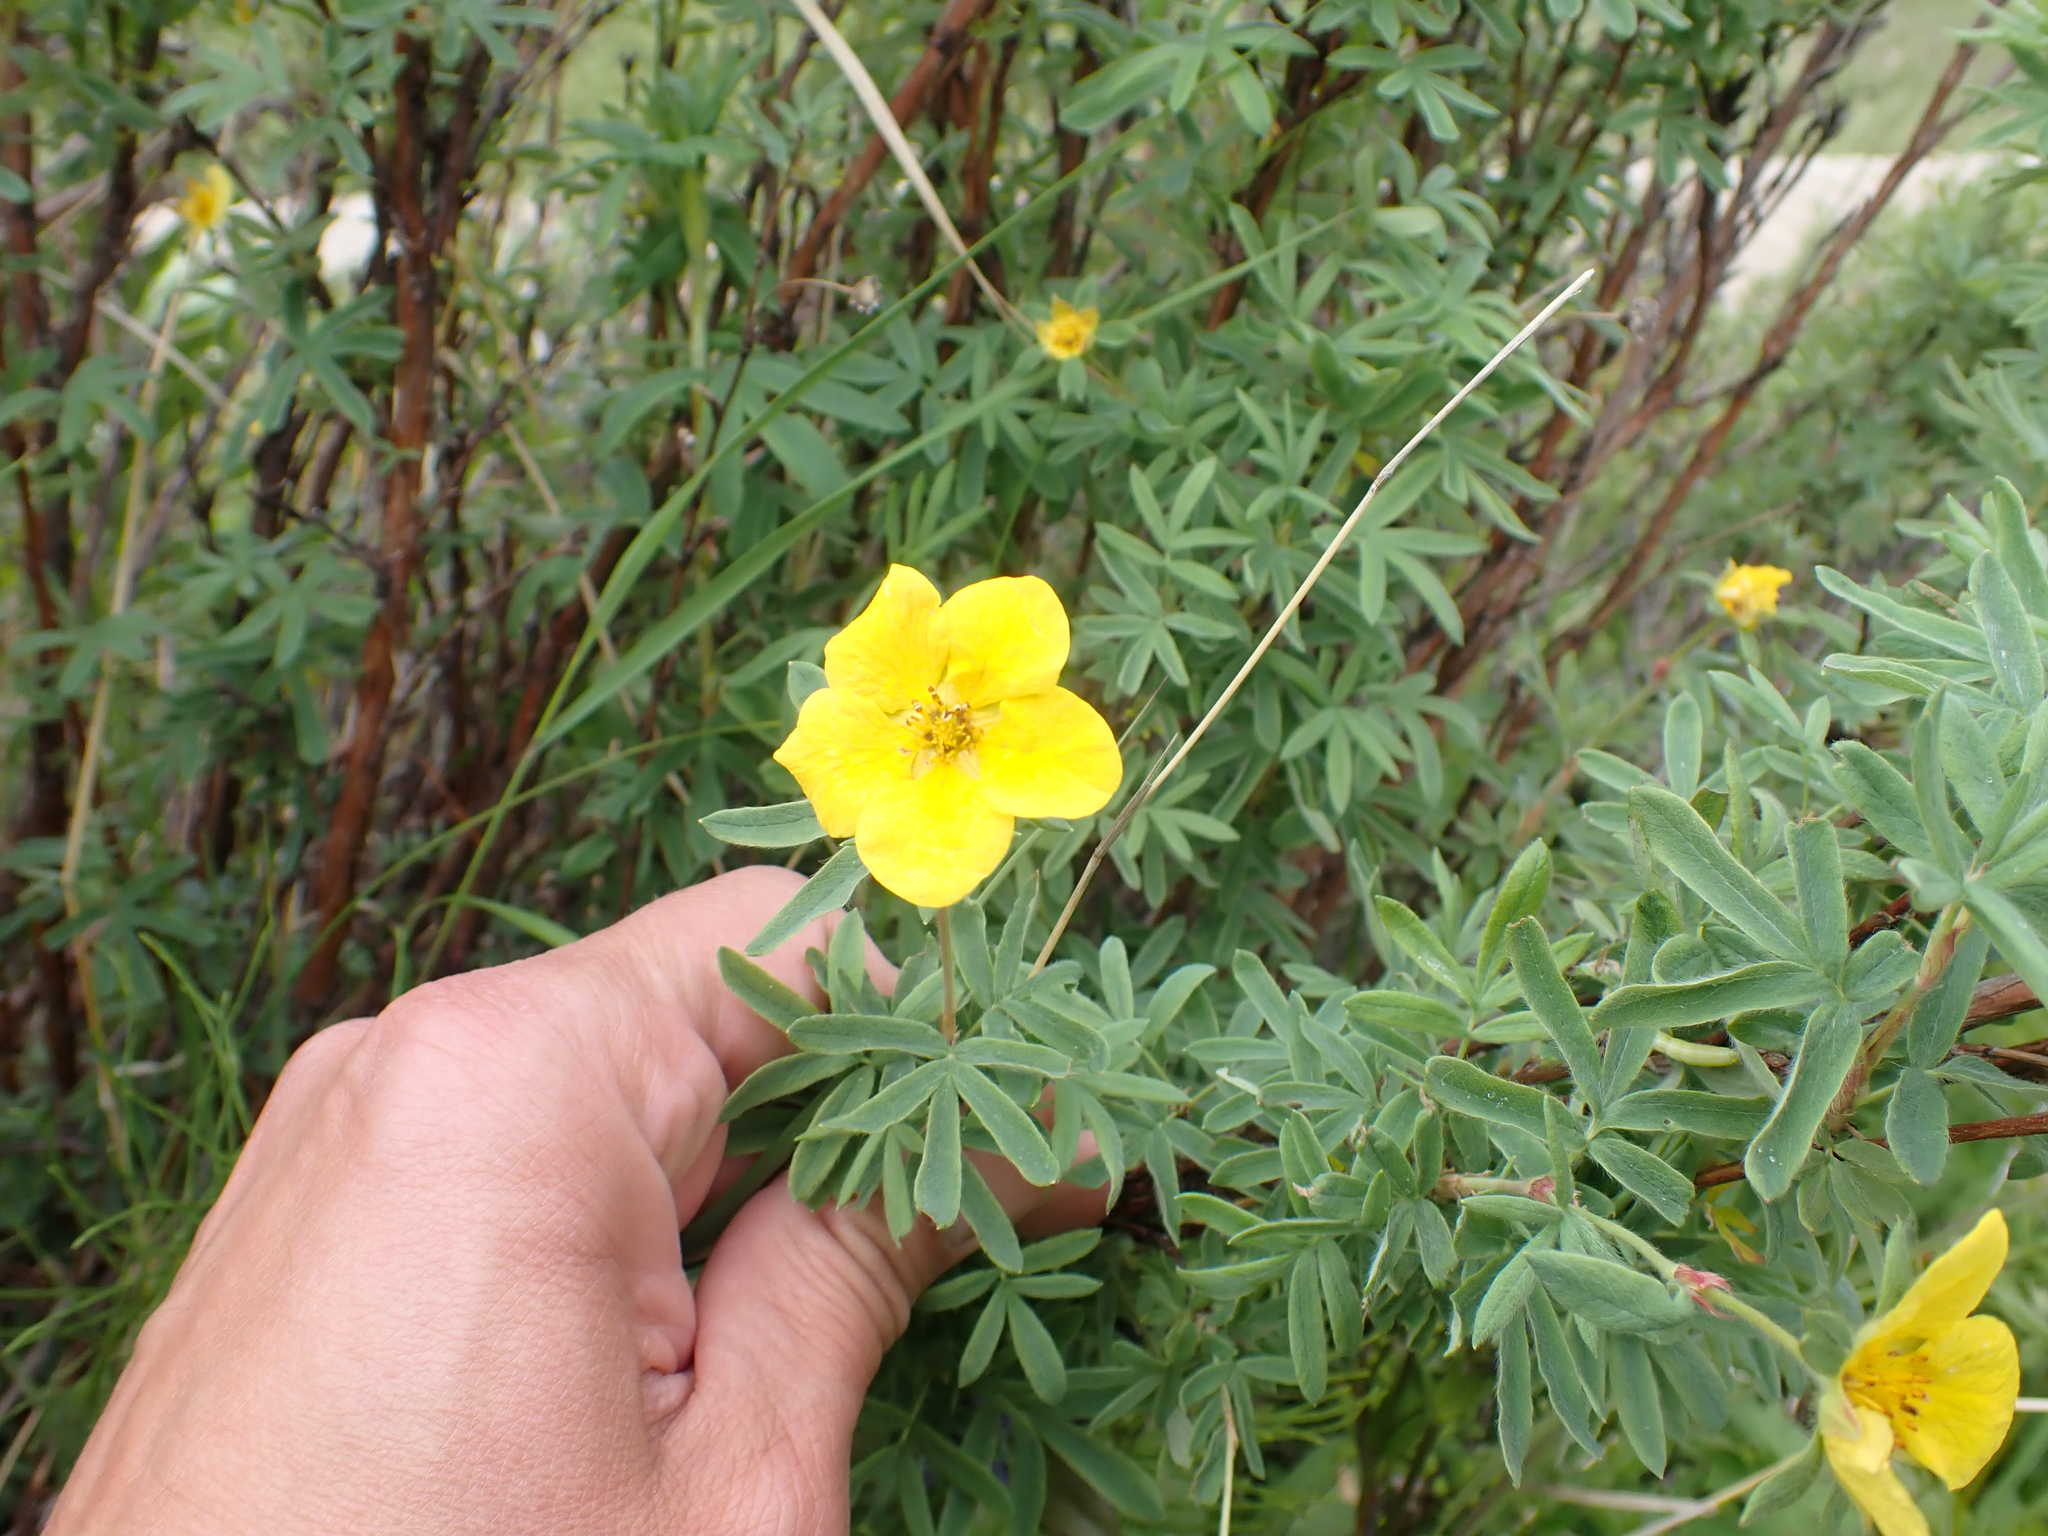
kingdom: Plantae
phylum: Tracheophyta
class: Magnoliopsida
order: Rosales
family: Rosaceae
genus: Dasiphora
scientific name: Dasiphora fruticosa
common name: Shrubby cinquefoil
